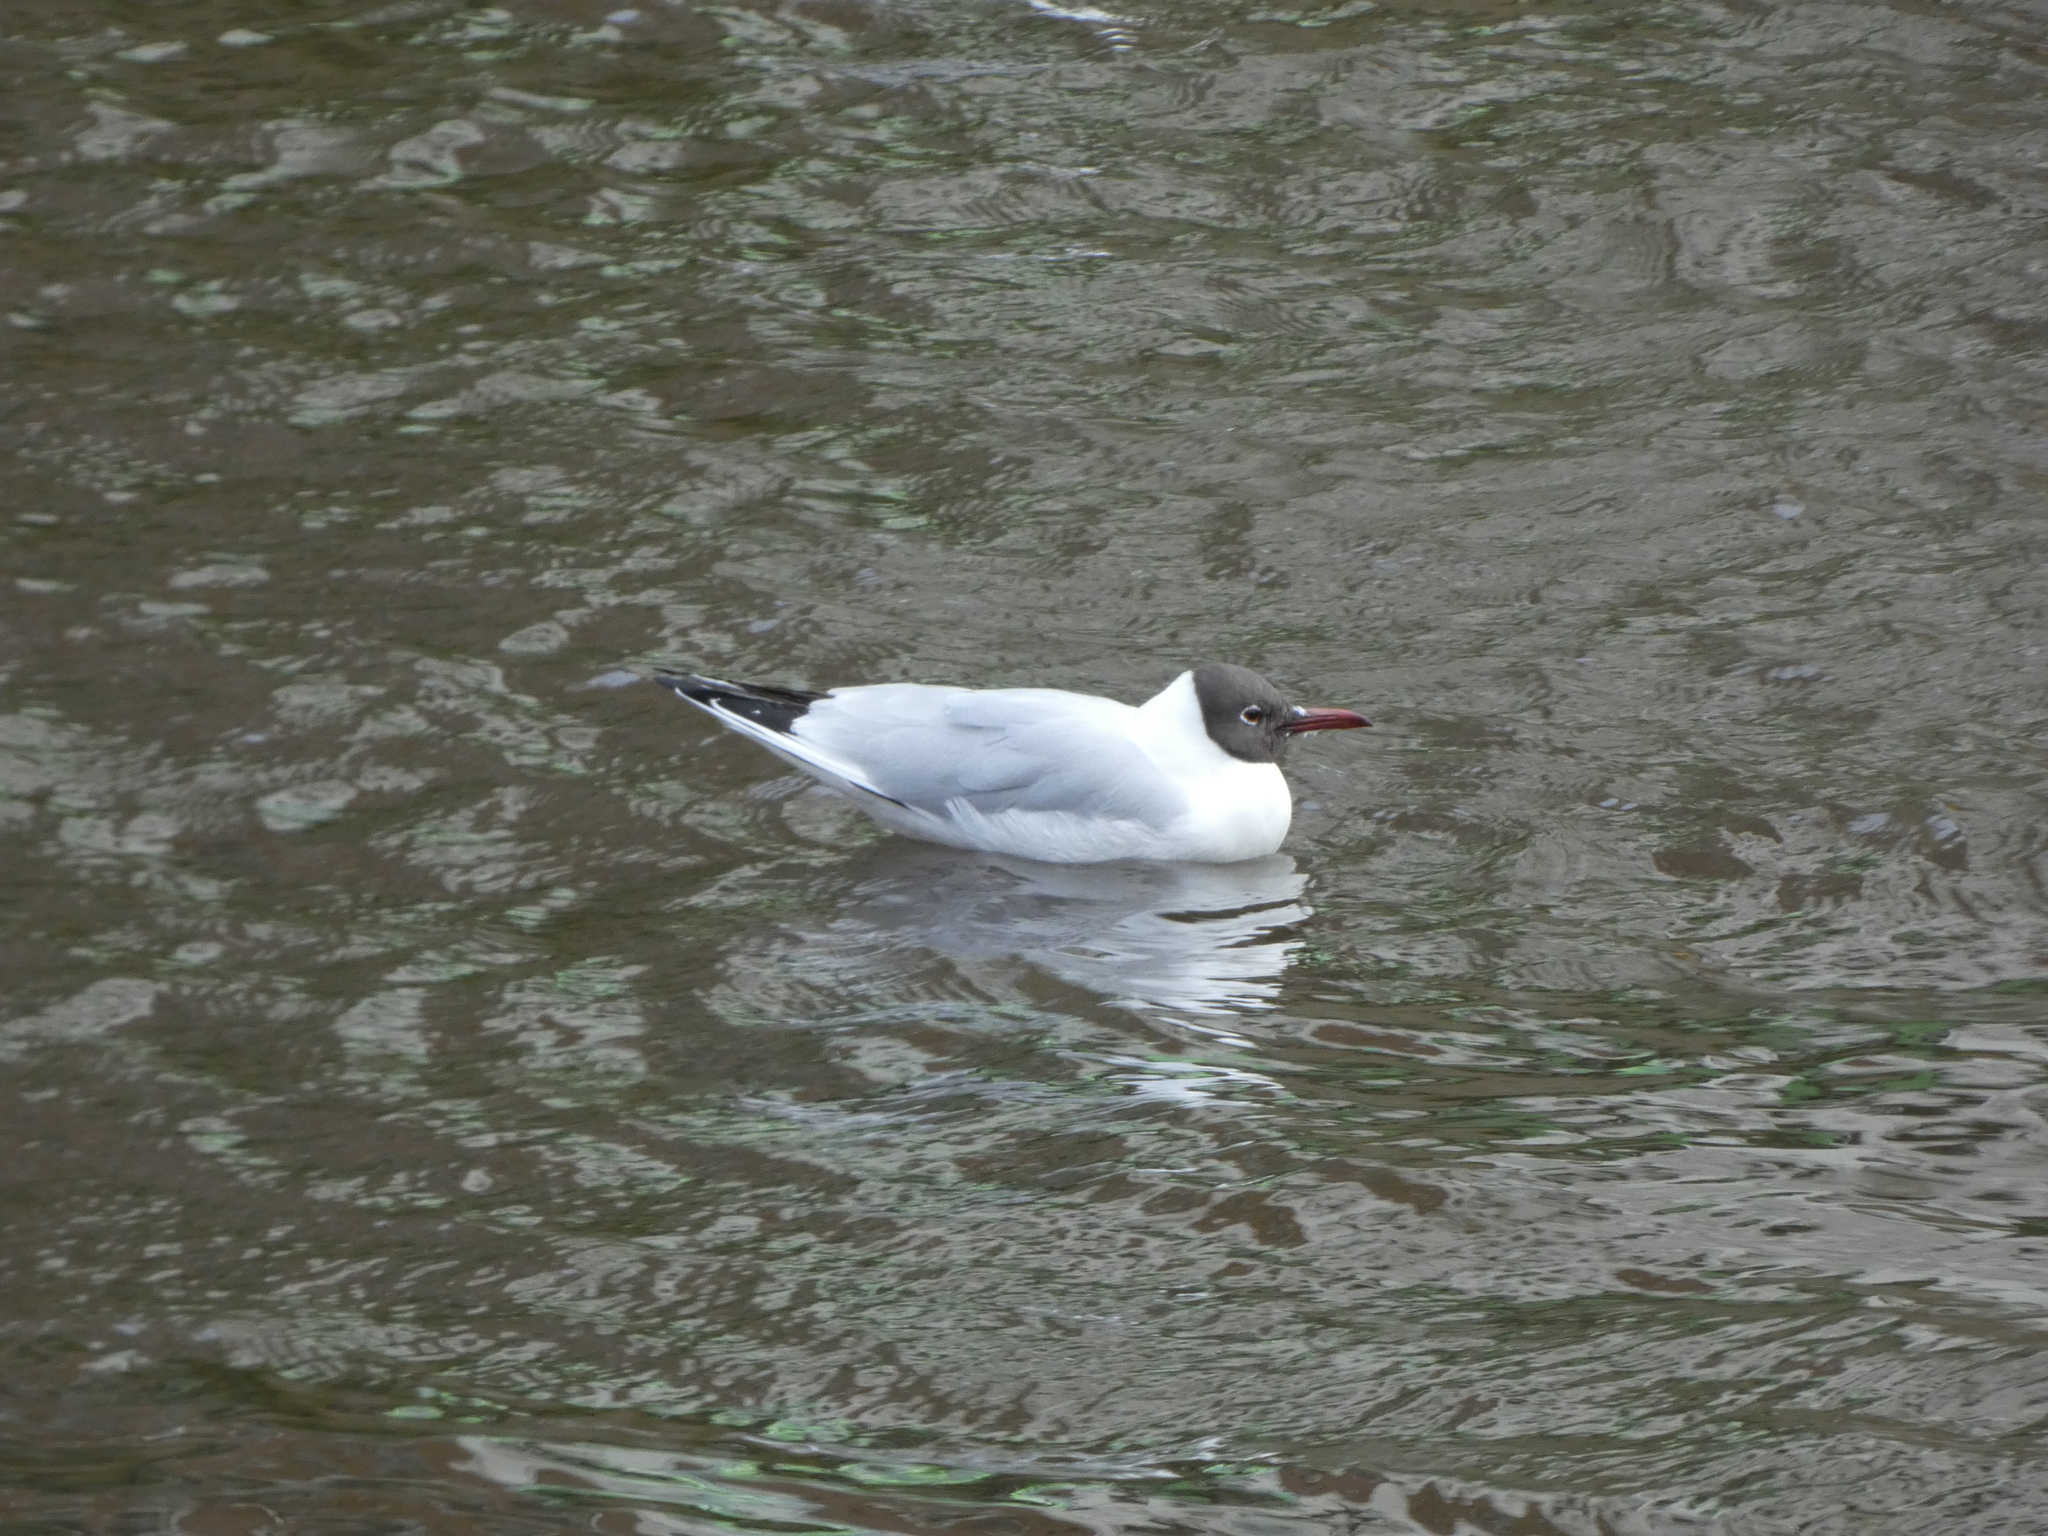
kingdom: Animalia
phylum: Chordata
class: Aves
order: Charadriiformes
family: Laridae
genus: Chroicocephalus
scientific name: Chroicocephalus ridibundus
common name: Black-headed gull
